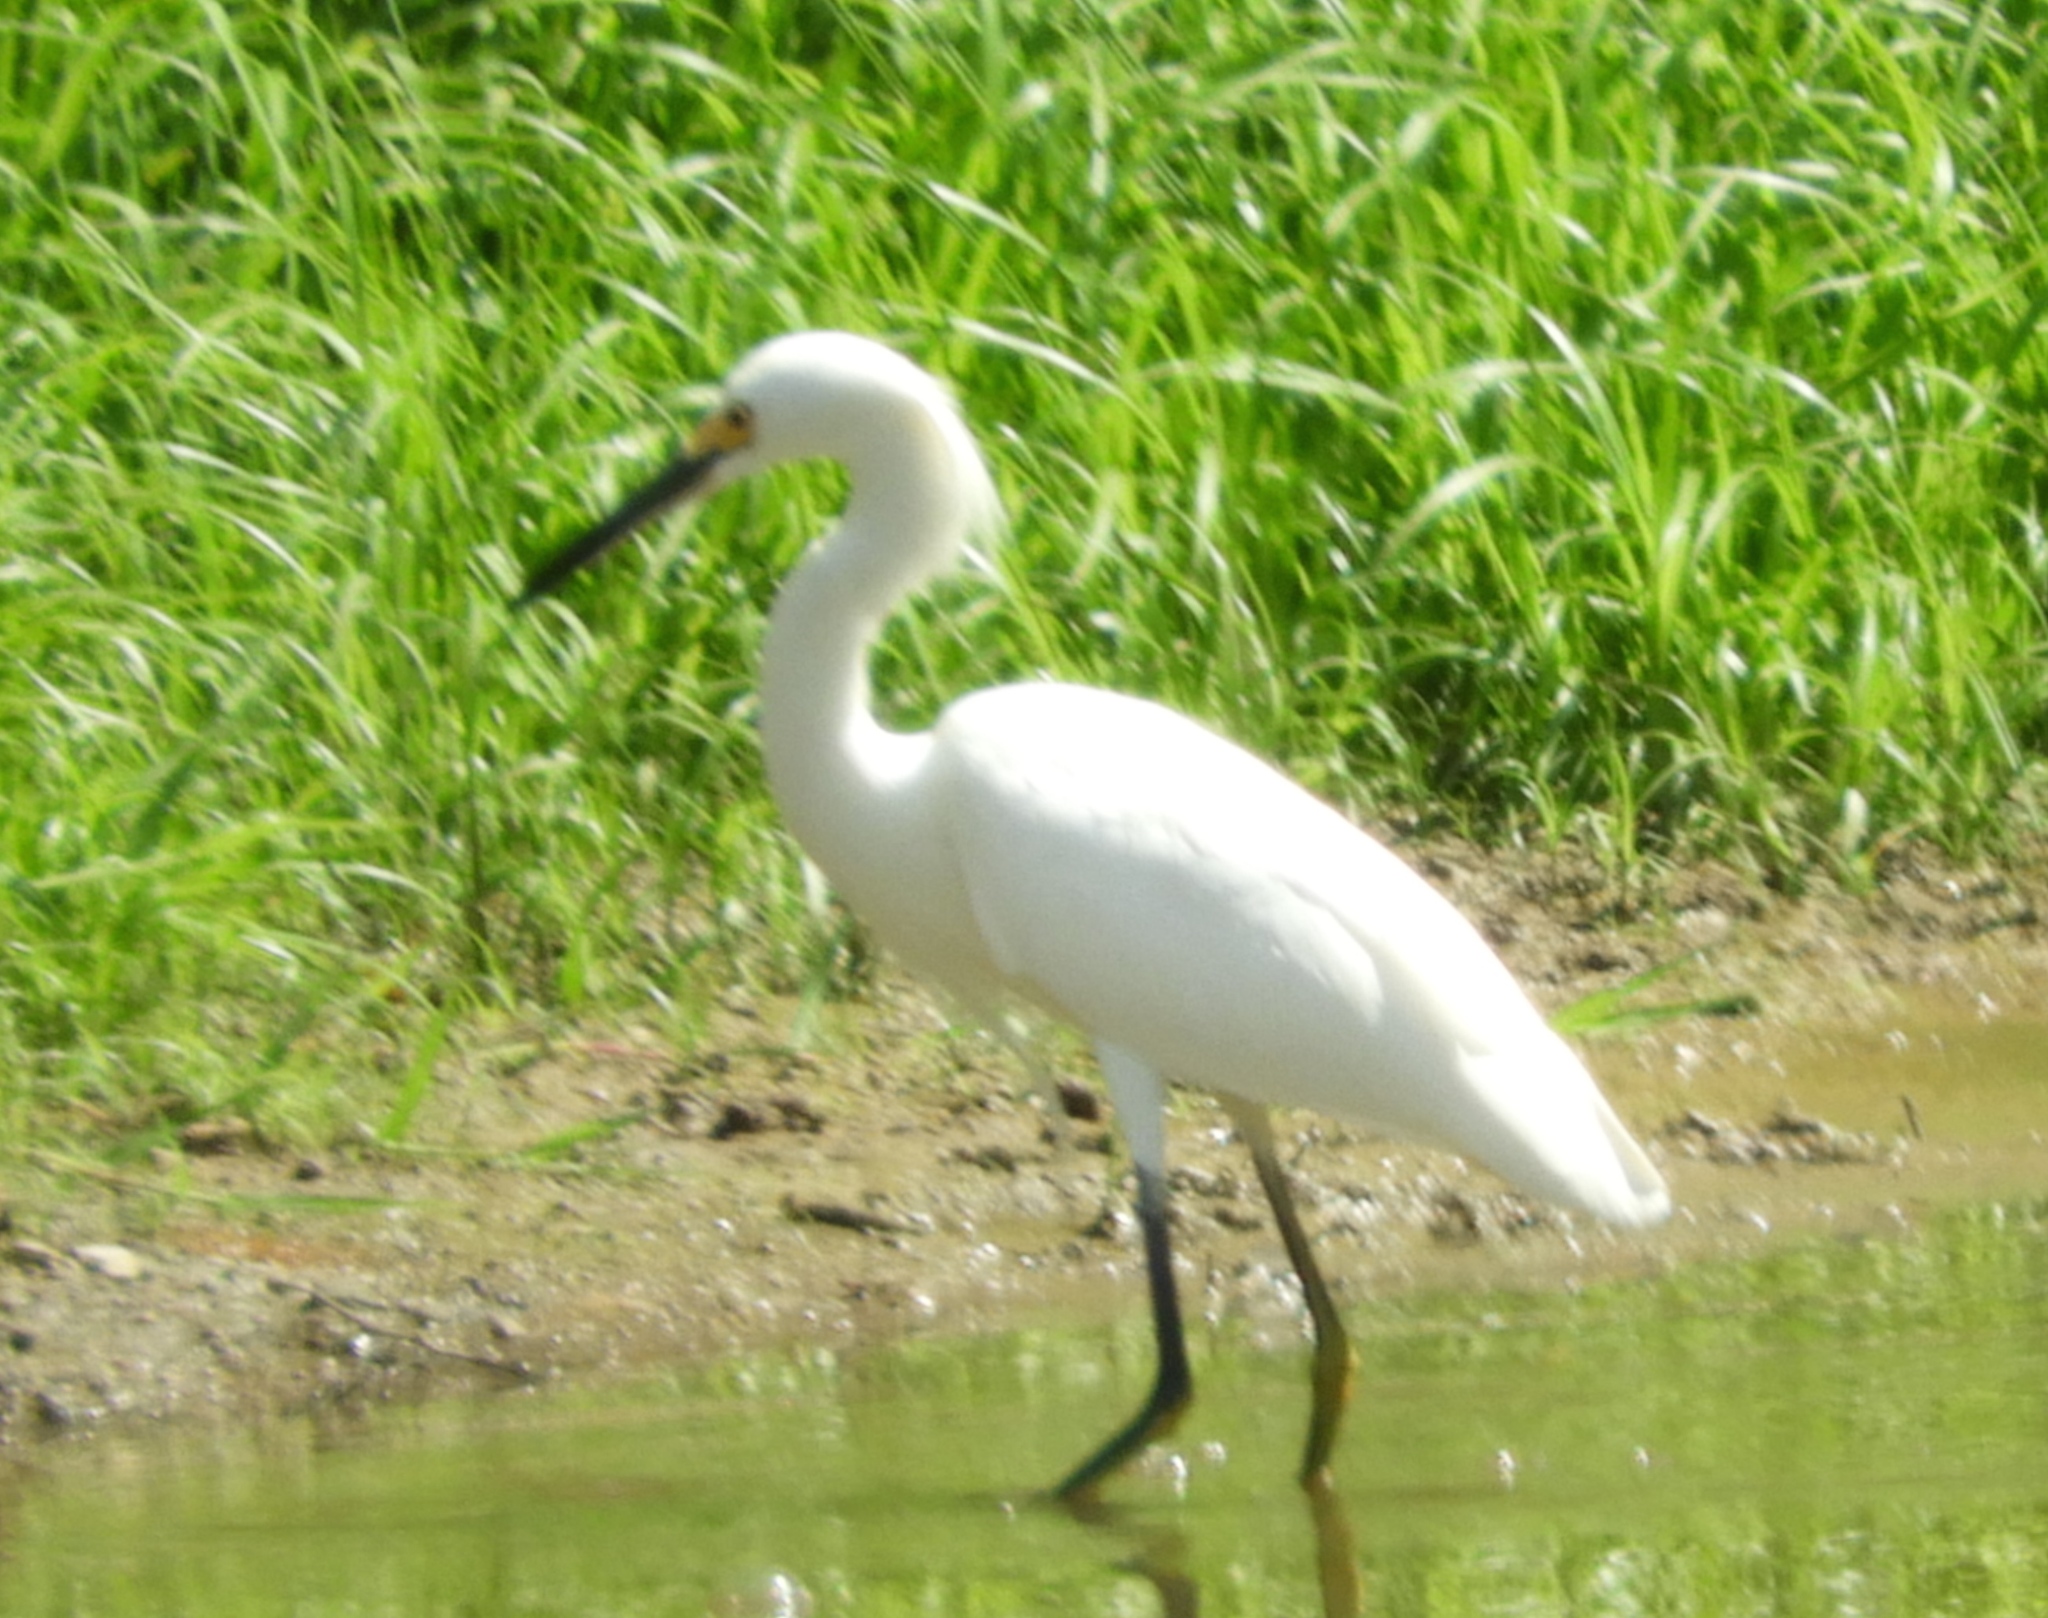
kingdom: Animalia
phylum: Chordata
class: Aves
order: Pelecaniformes
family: Ardeidae
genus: Egretta
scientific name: Egretta thula
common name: Snowy egret
